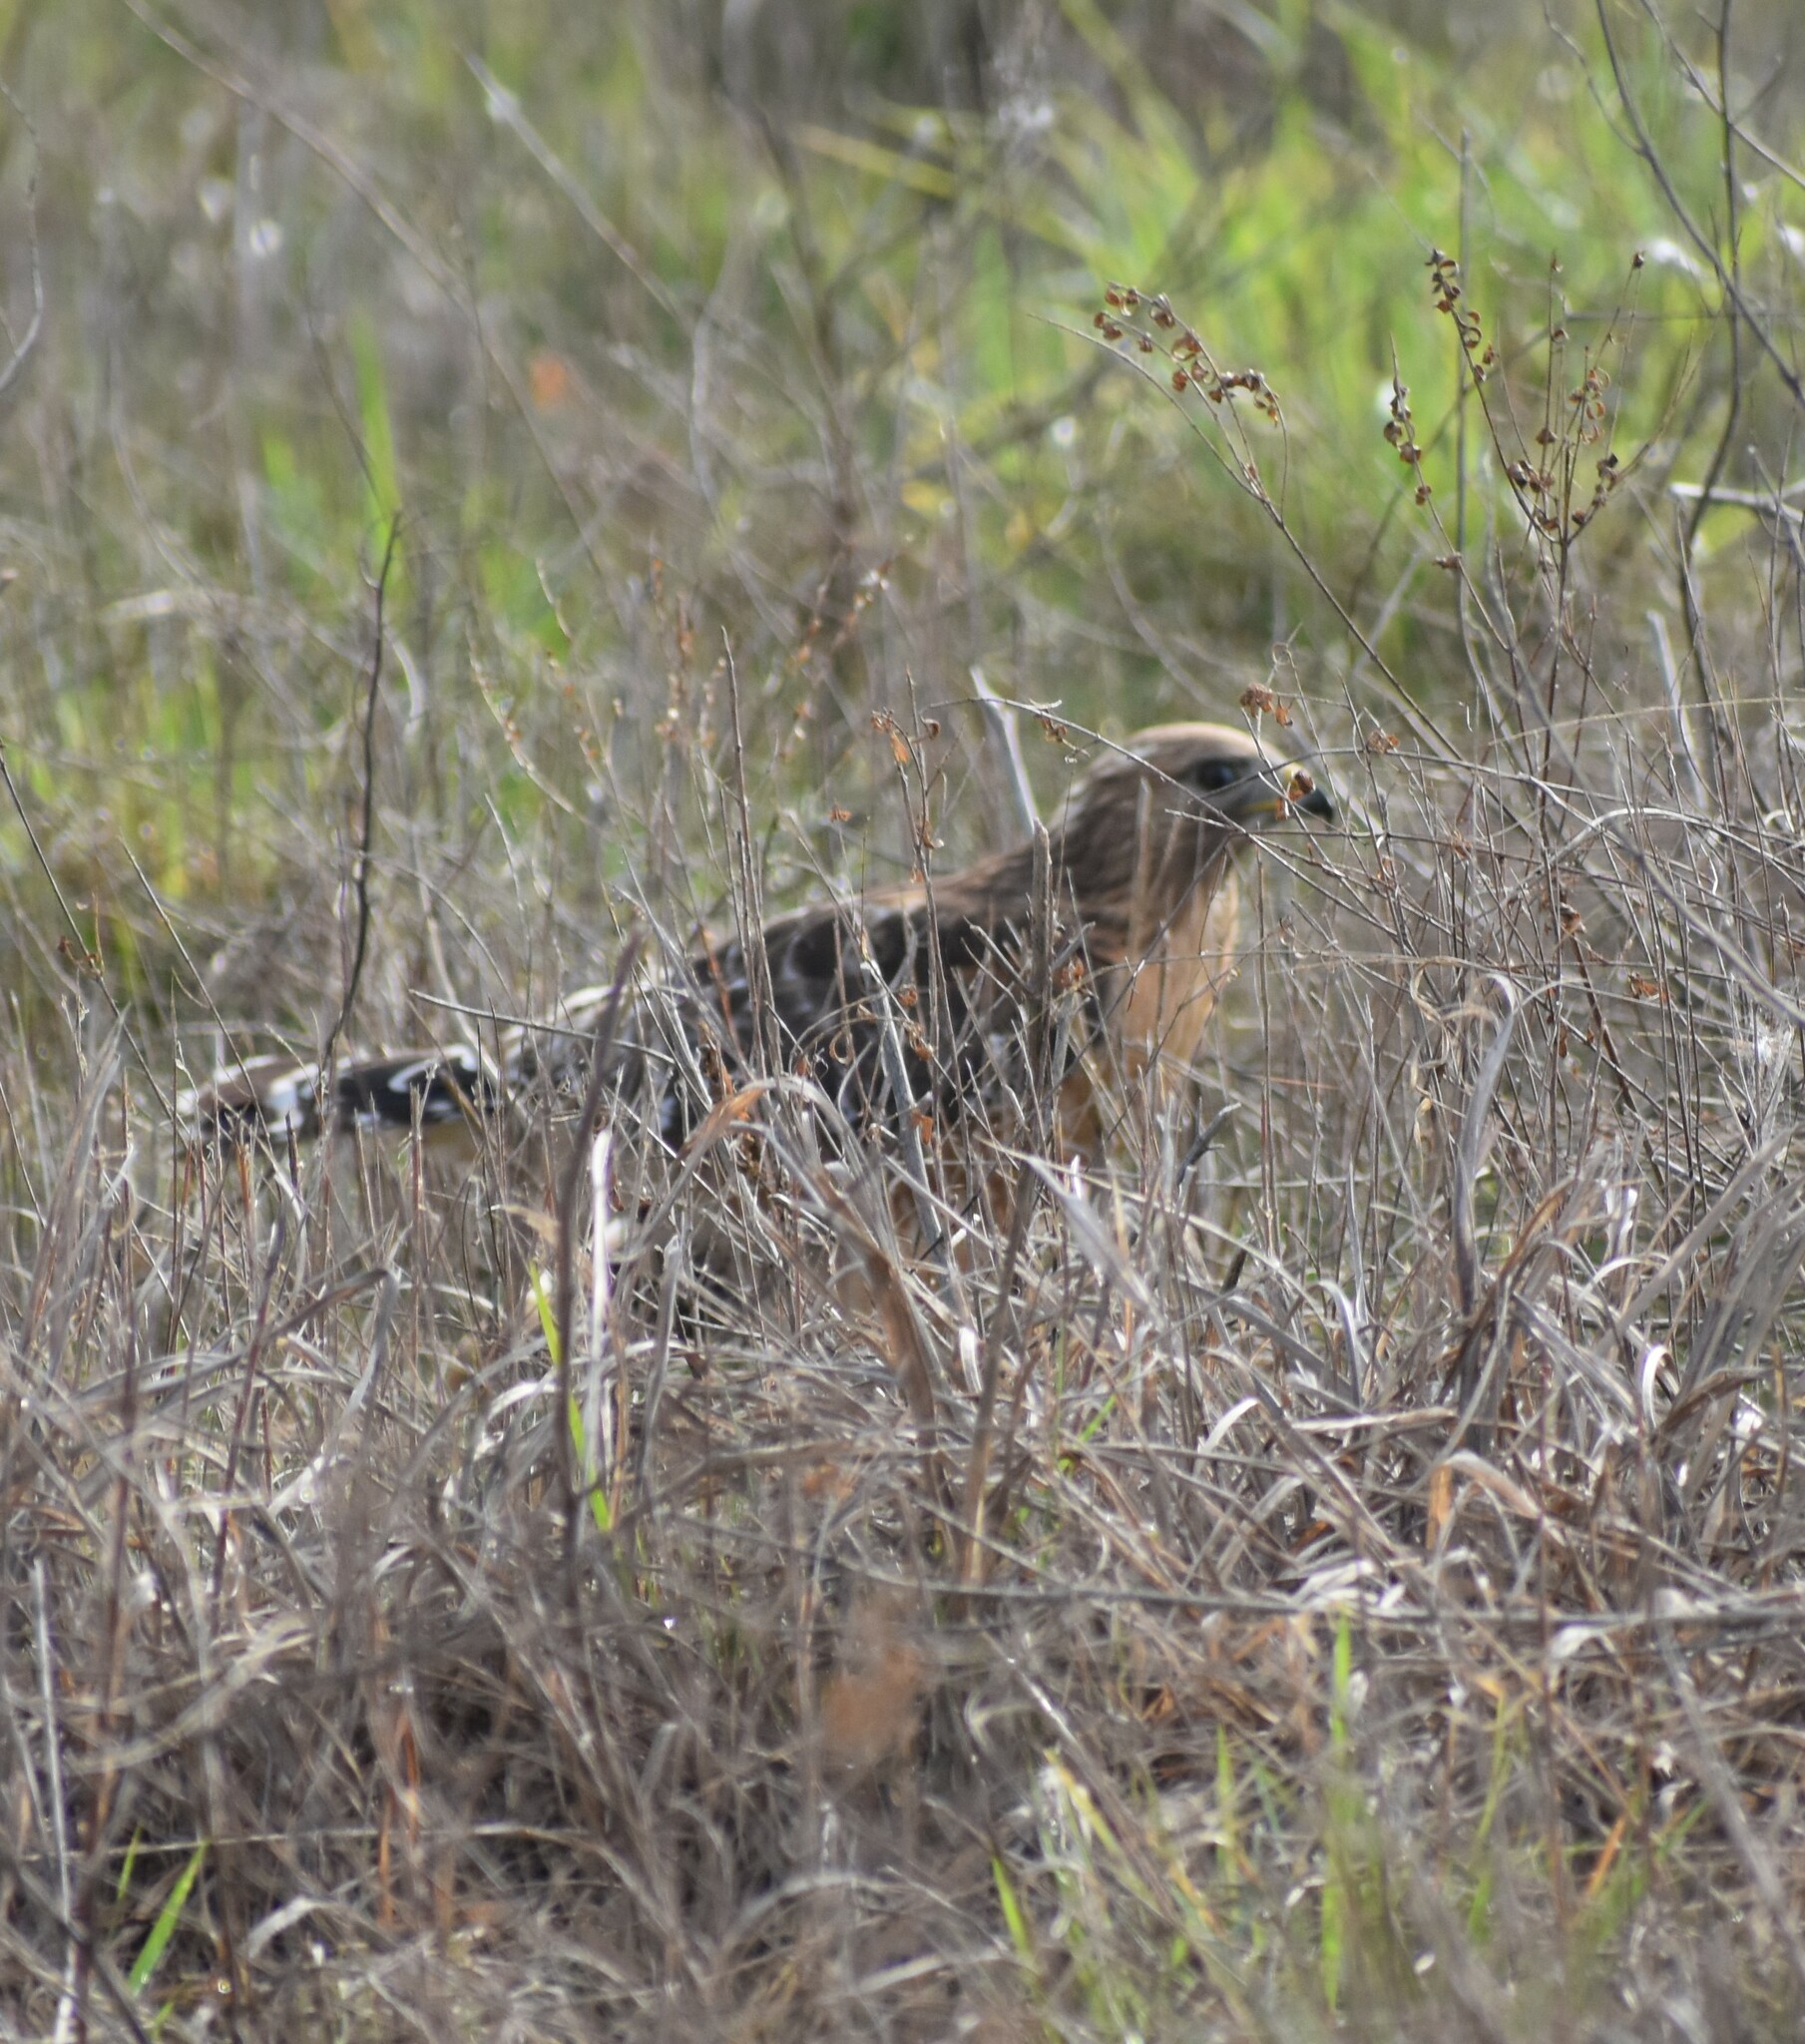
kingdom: Animalia
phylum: Chordata
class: Aves
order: Accipitriformes
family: Accipitridae
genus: Buteo
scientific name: Buteo lineatus
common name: Red-shouldered hawk
